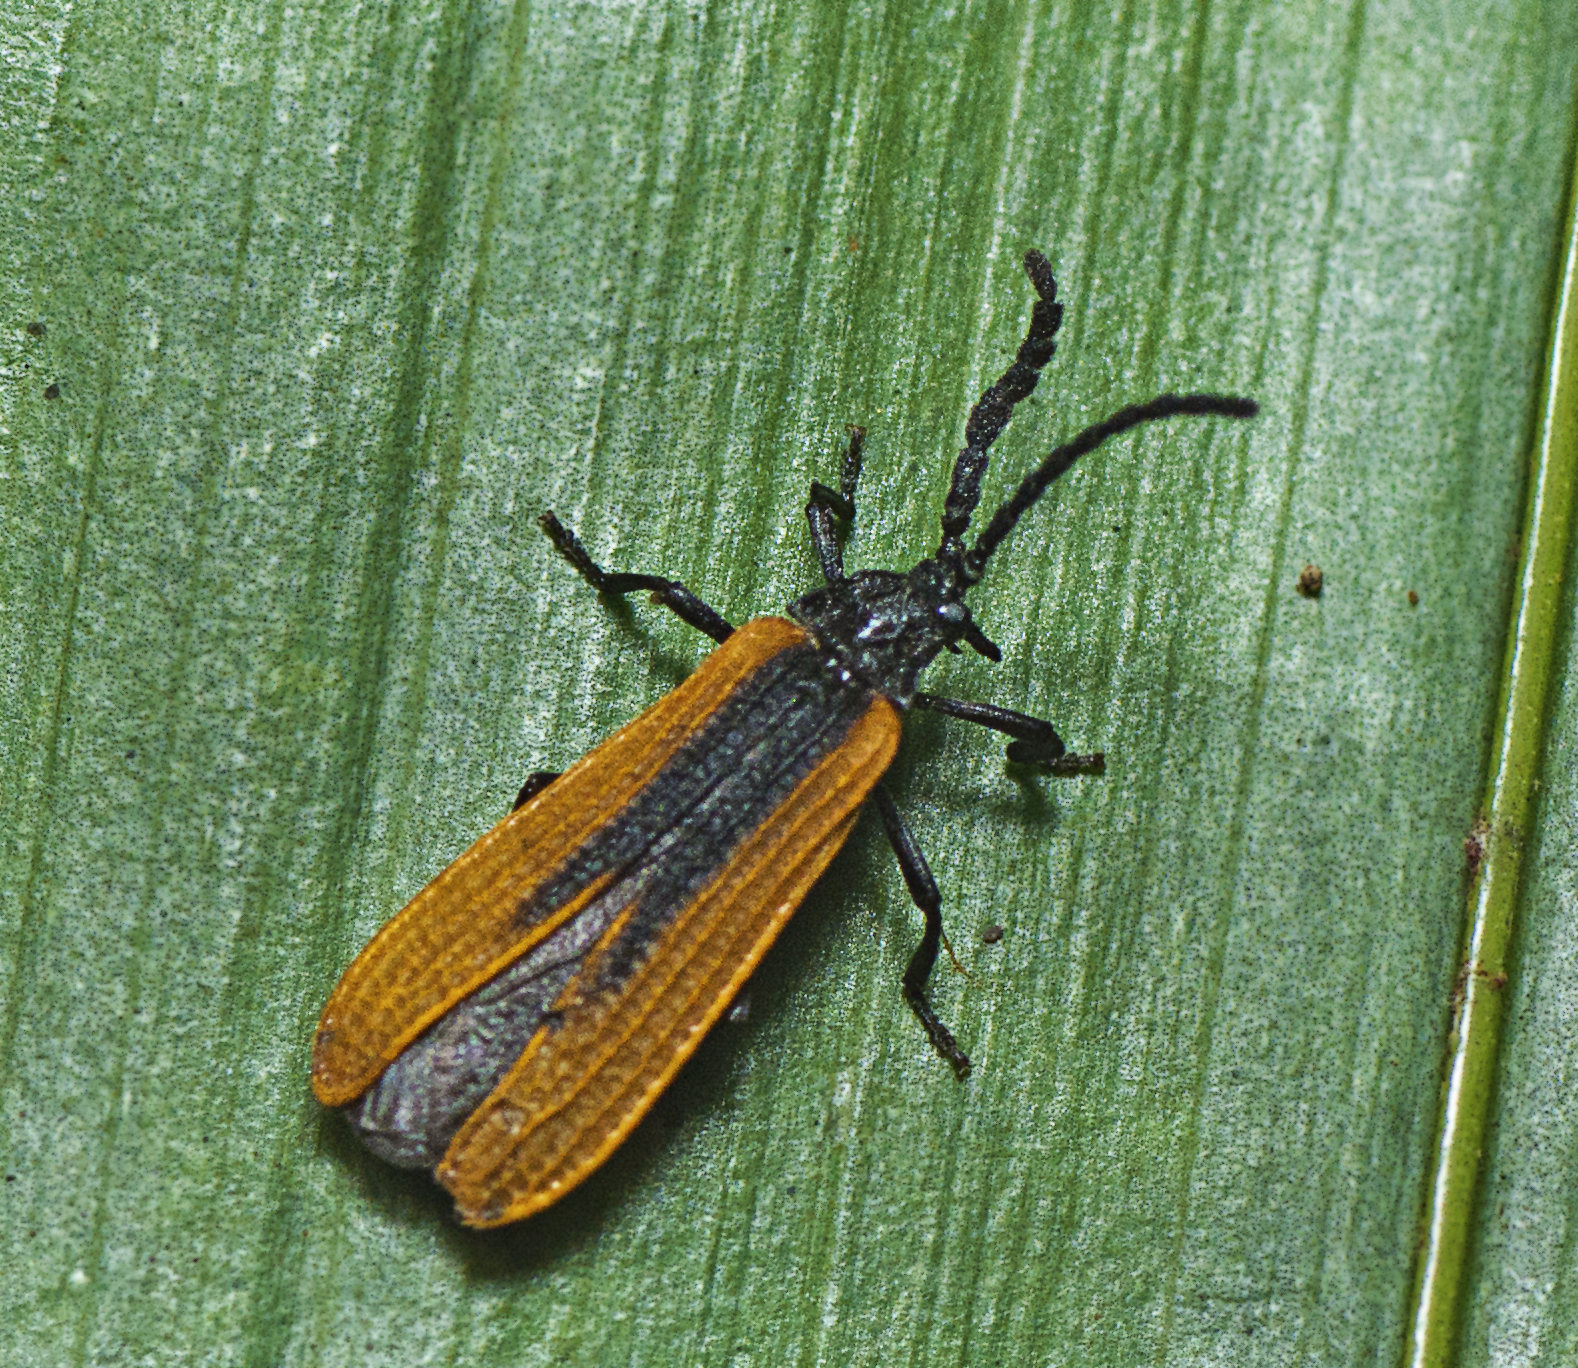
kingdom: Animalia
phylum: Arthropoda
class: Insecta
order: Coleoptera
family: Lycidae
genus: Xylobanus
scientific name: Xylobanus
